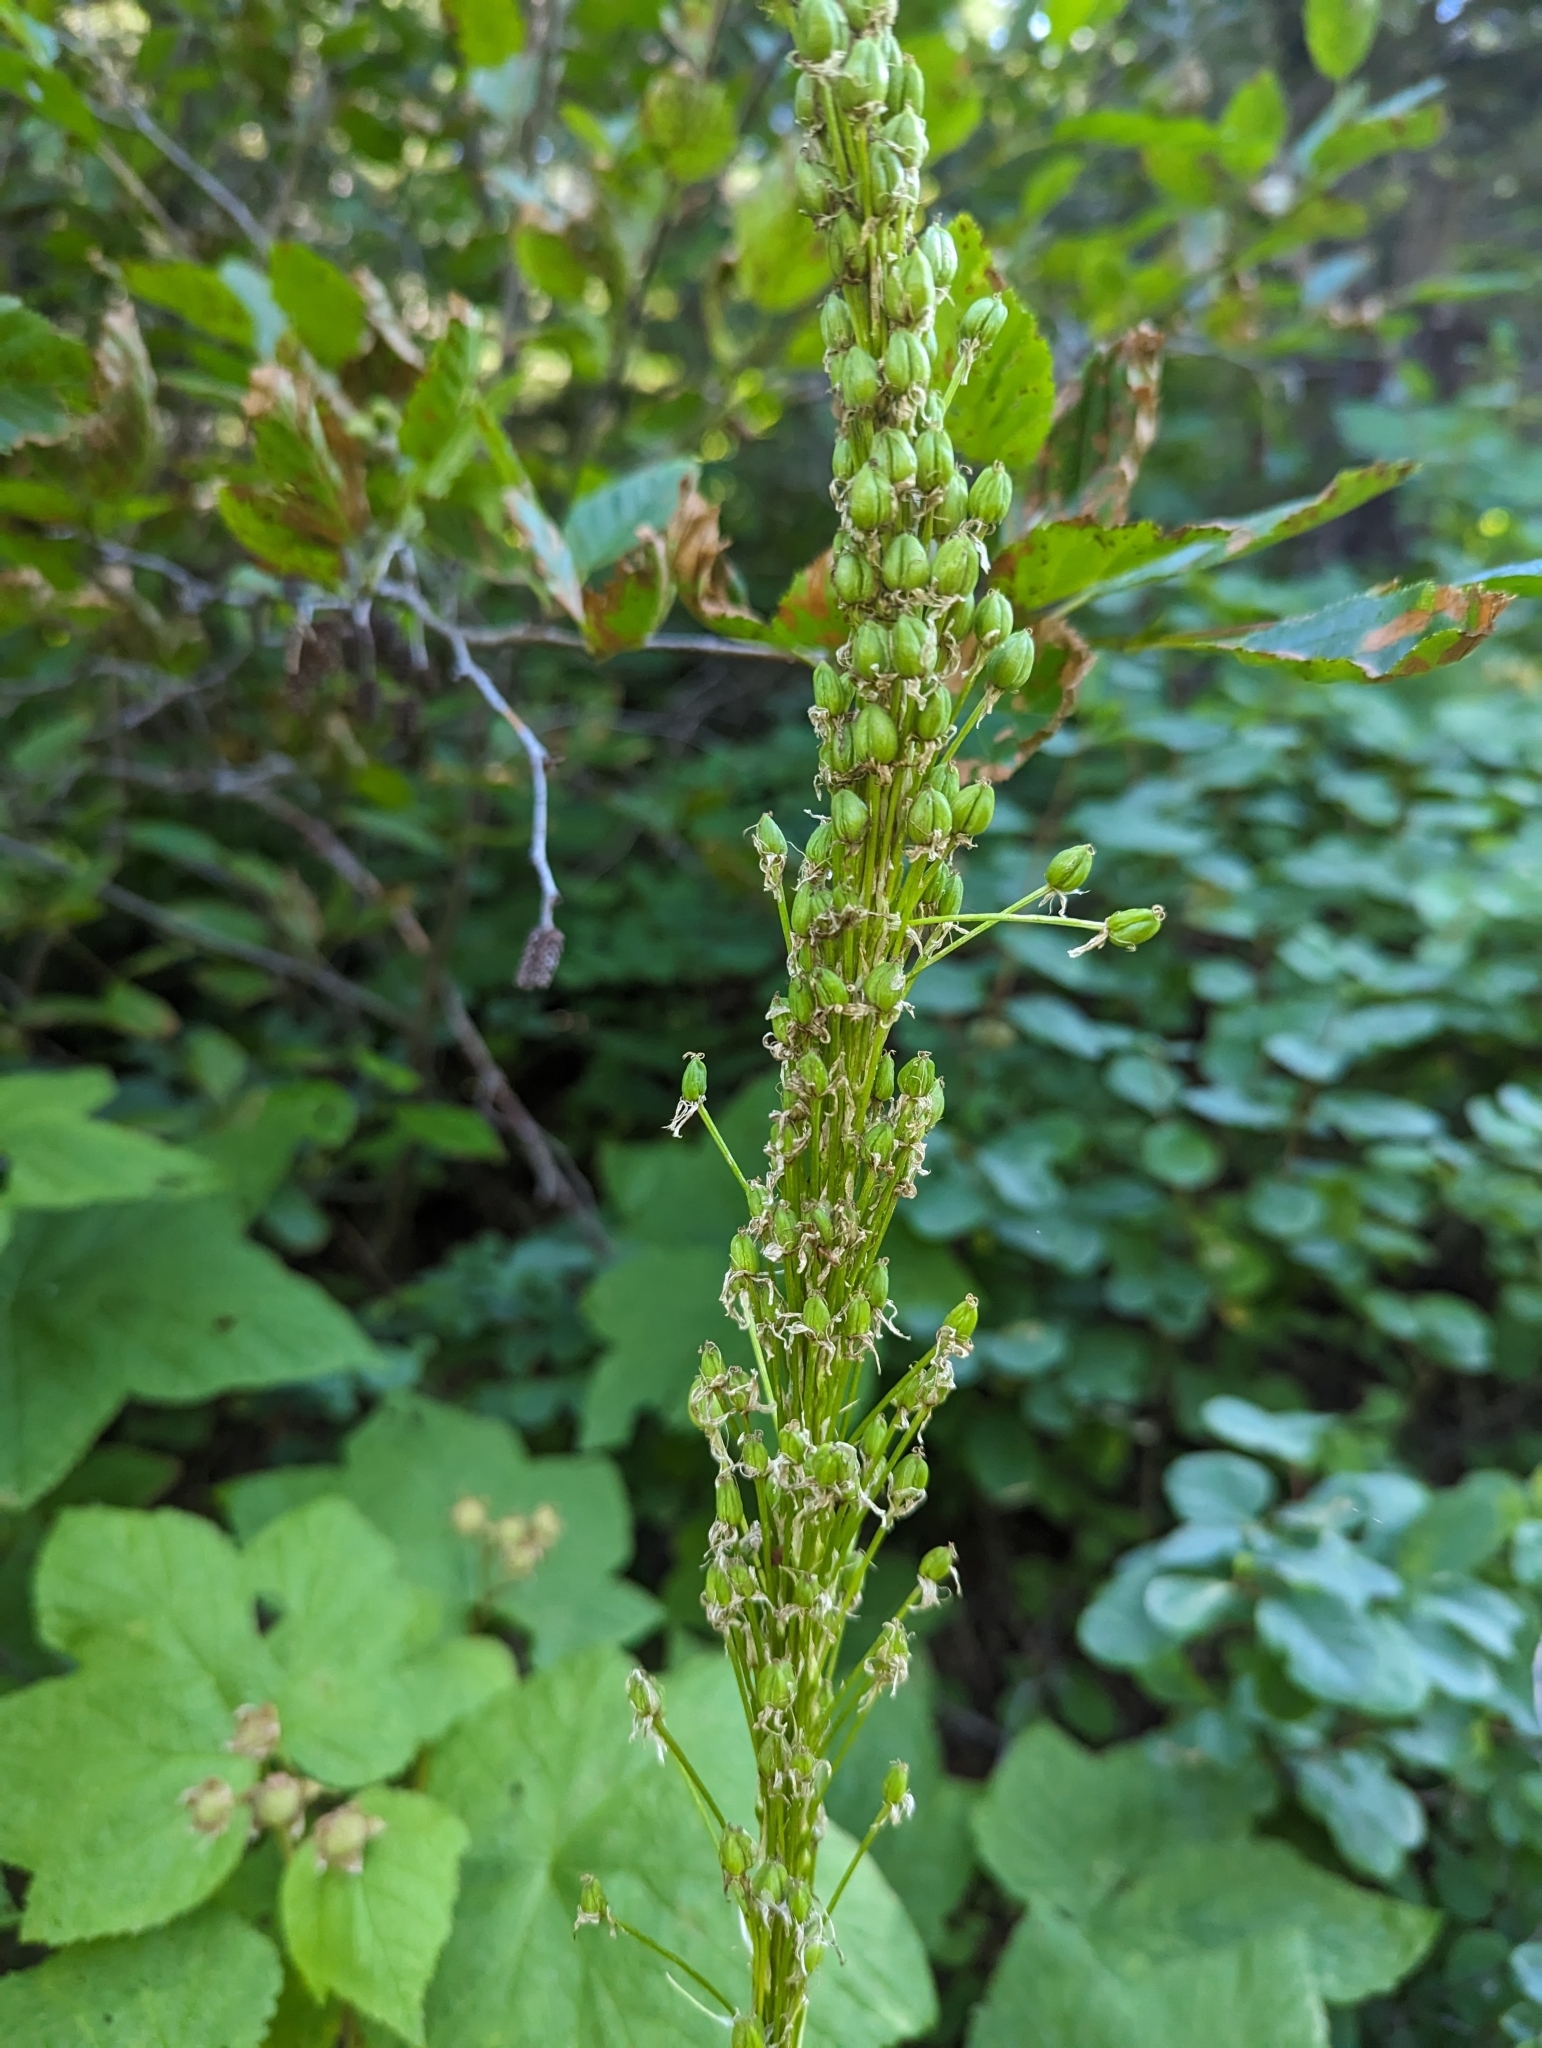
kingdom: Plantae
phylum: Tracheophyta
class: Liliopsida
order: Liliales
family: Melanthiaceae
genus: Xerophyllum
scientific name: Xerophyllum tenax
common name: Bear-grass
